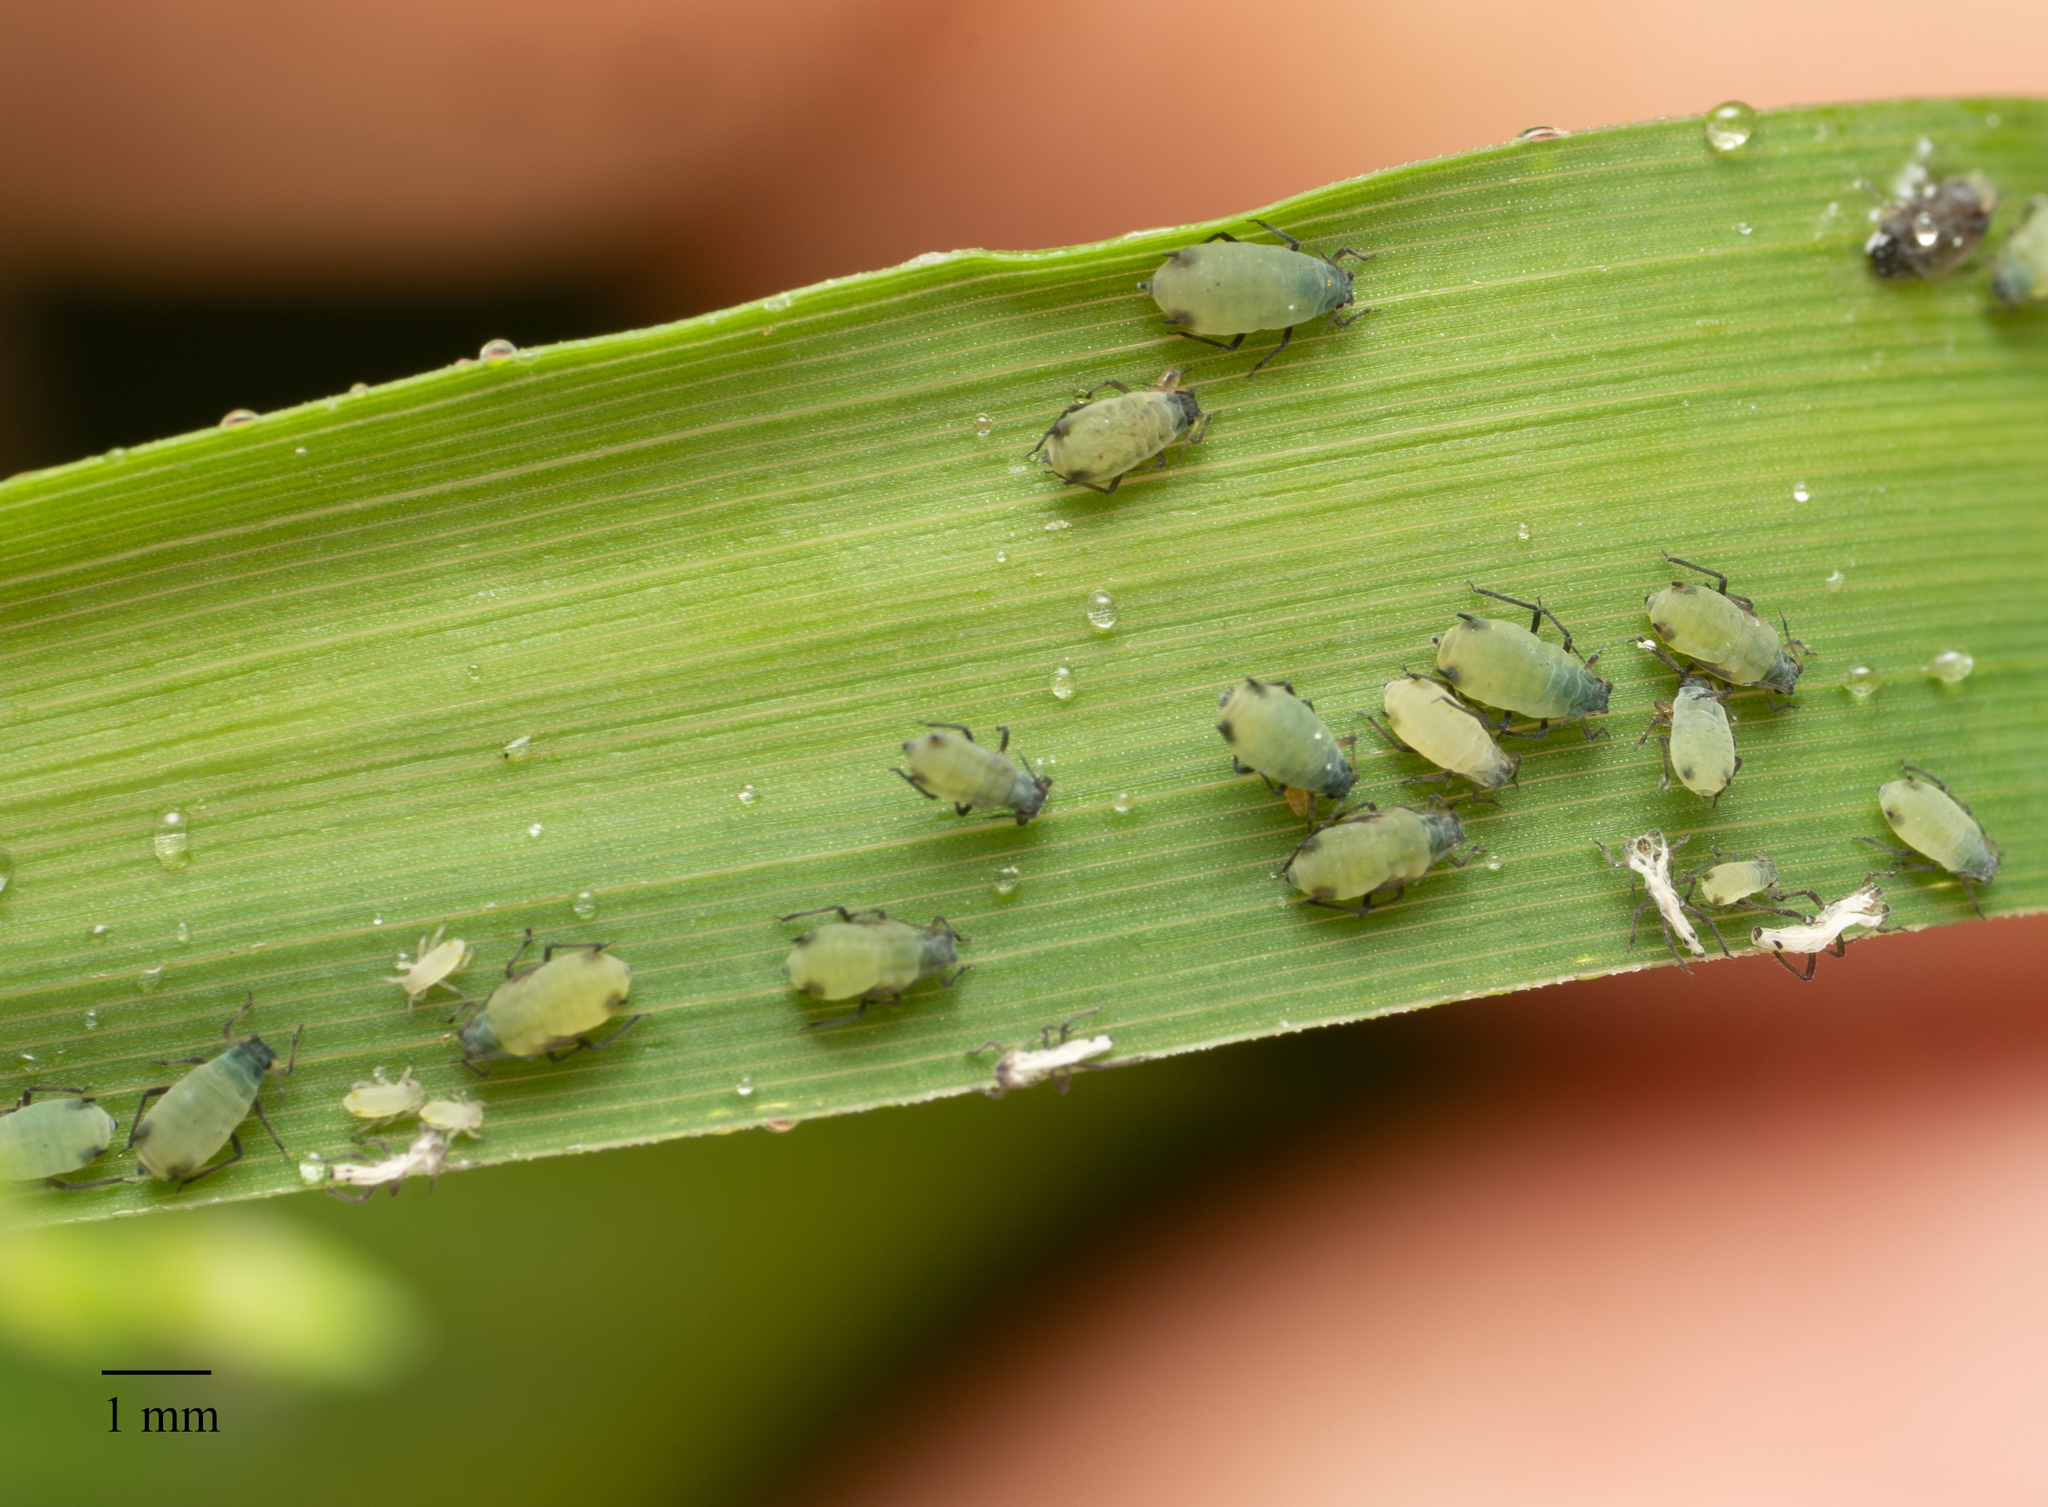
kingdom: Animalia
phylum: Arthropoda
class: Insecta
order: Hemiptera
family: Aphididae
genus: Rhopalosiphum
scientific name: Rhopalosiphum maidis
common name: Corn leaf aphid
